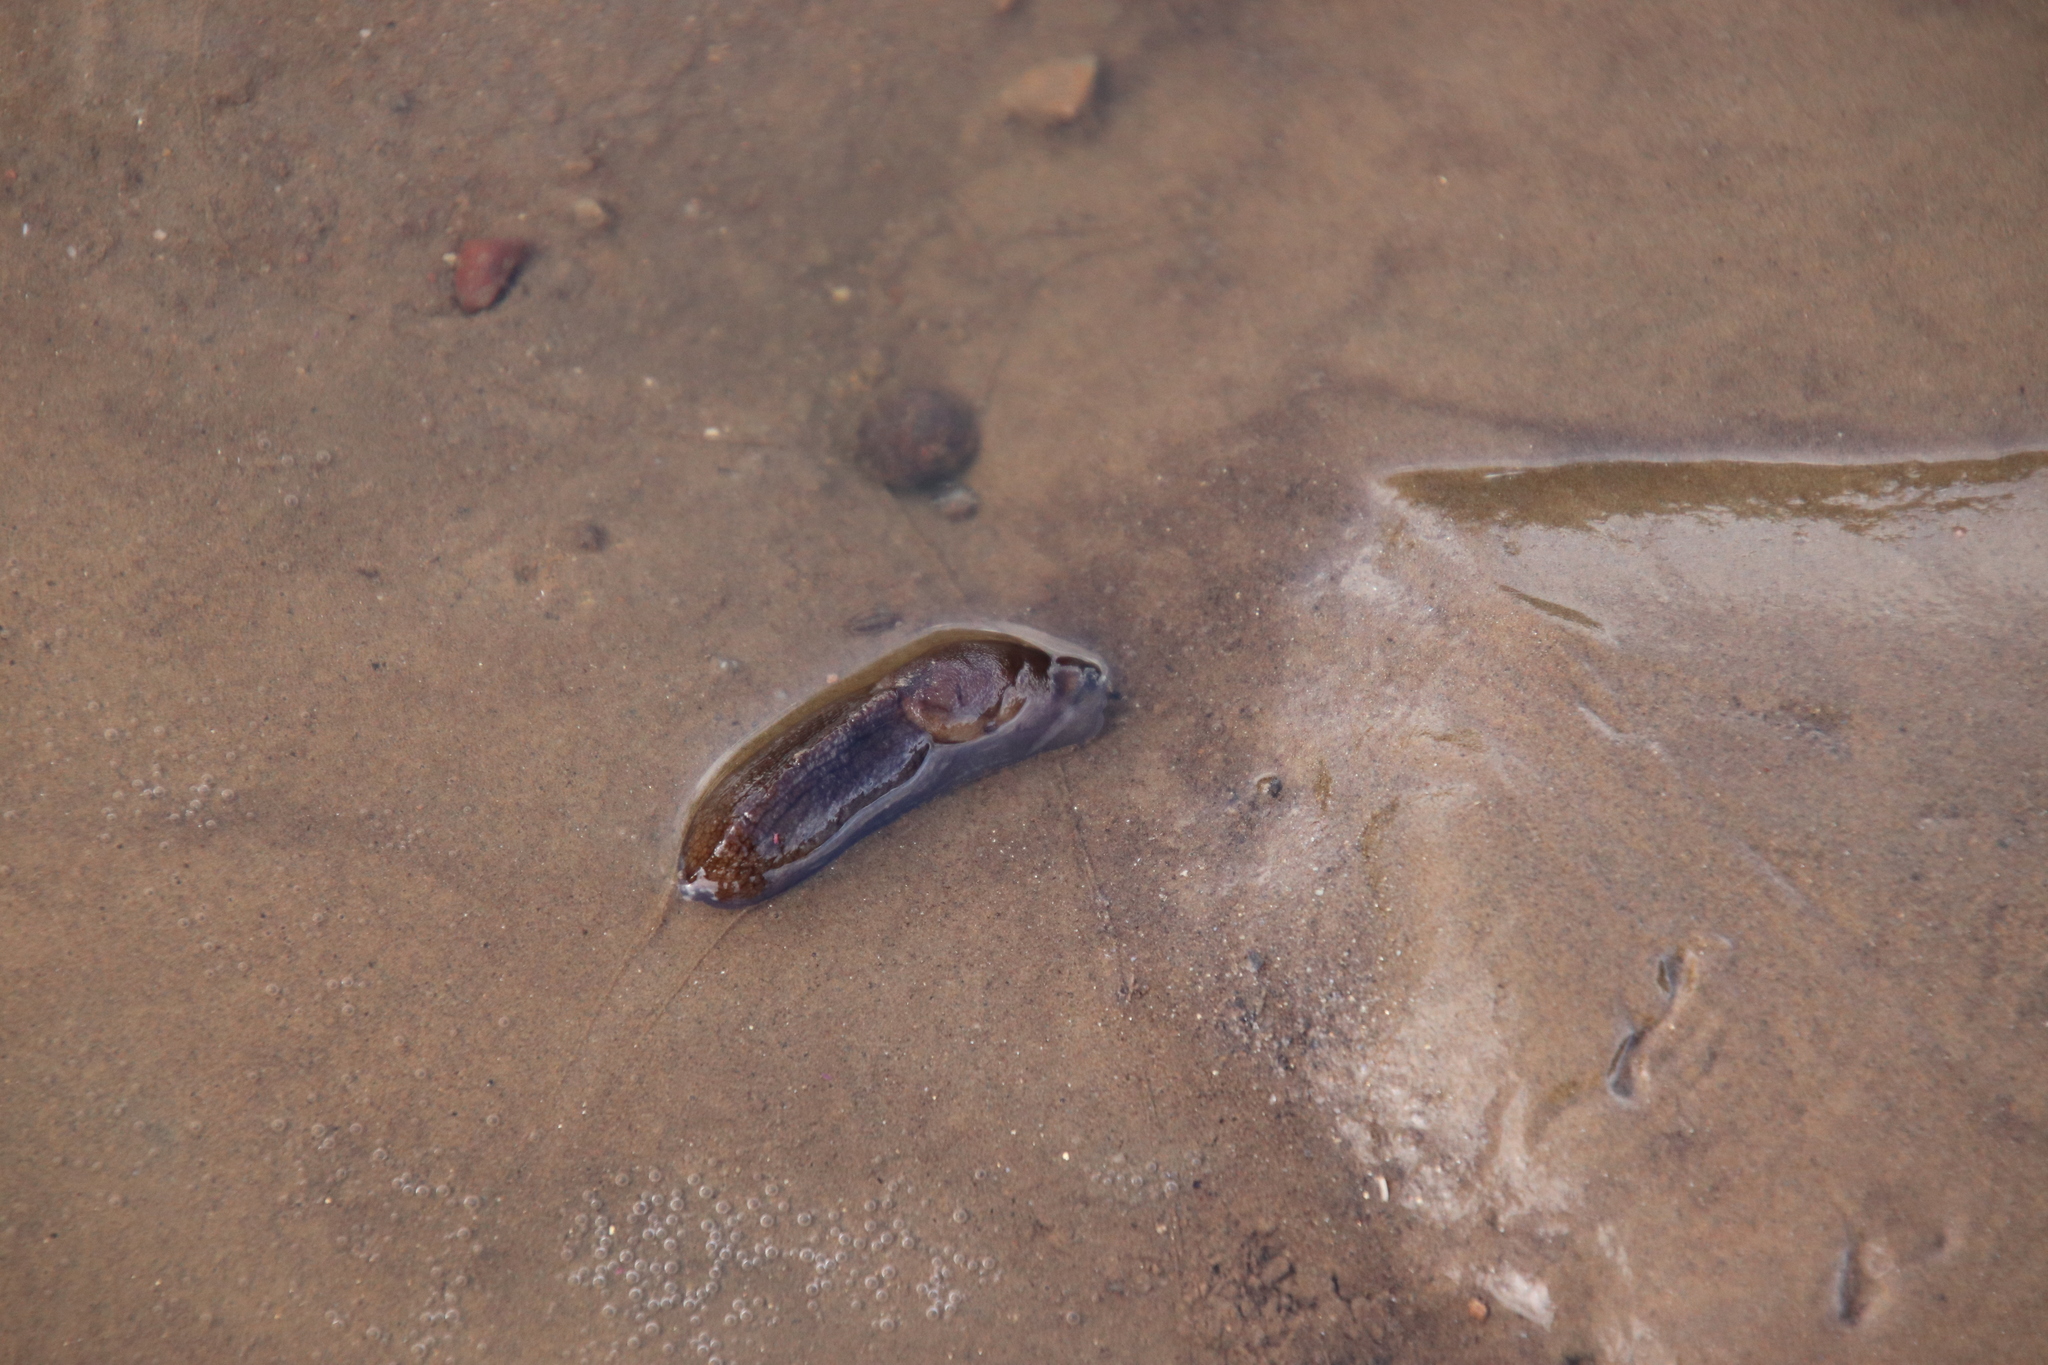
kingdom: Animalia
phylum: Mollusca
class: Gastropoda
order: Stylommatophora
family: Milacidae
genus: Milax
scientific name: Milax gagates
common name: Greenhouse slug
